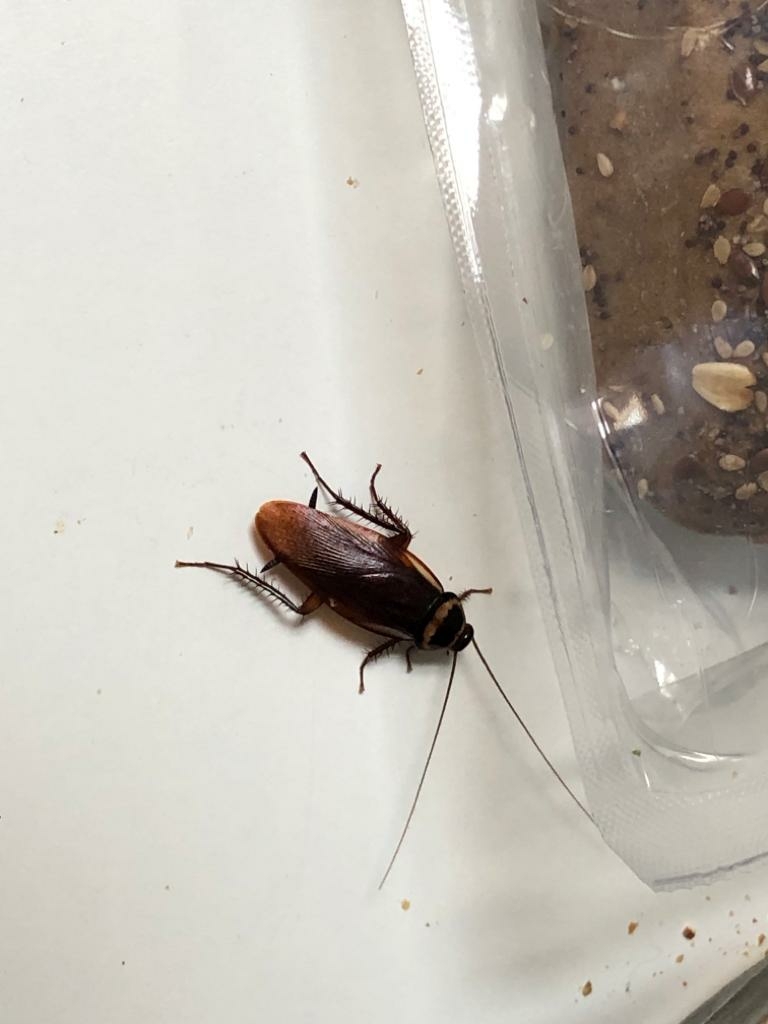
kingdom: Animalia
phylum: Arthropoda
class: Insecta
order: Blattodea
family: Blattidae
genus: Periplaneta
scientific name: Periplaneta australasiae
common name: Australian cockroach
